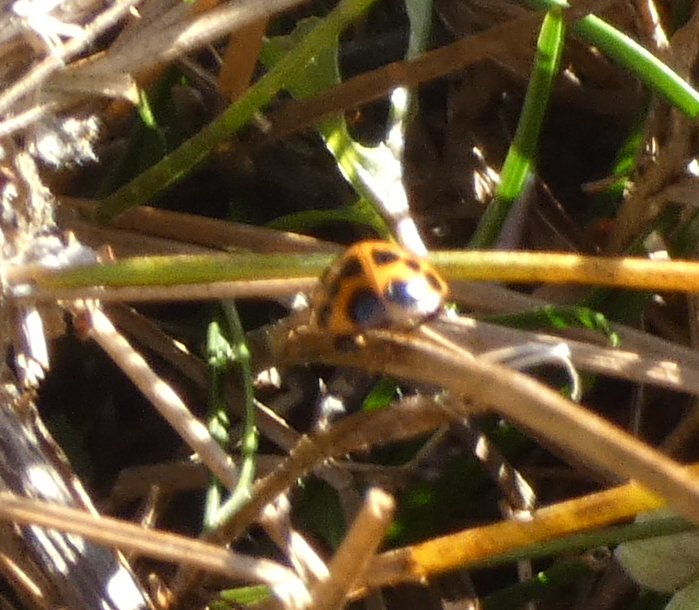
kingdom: Animalia
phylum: Arthropoda
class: Insecta
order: Coleoptera
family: Coccinellidae
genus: Harmonia
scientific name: Harmonia axyridis
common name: Harlequin ladybird
